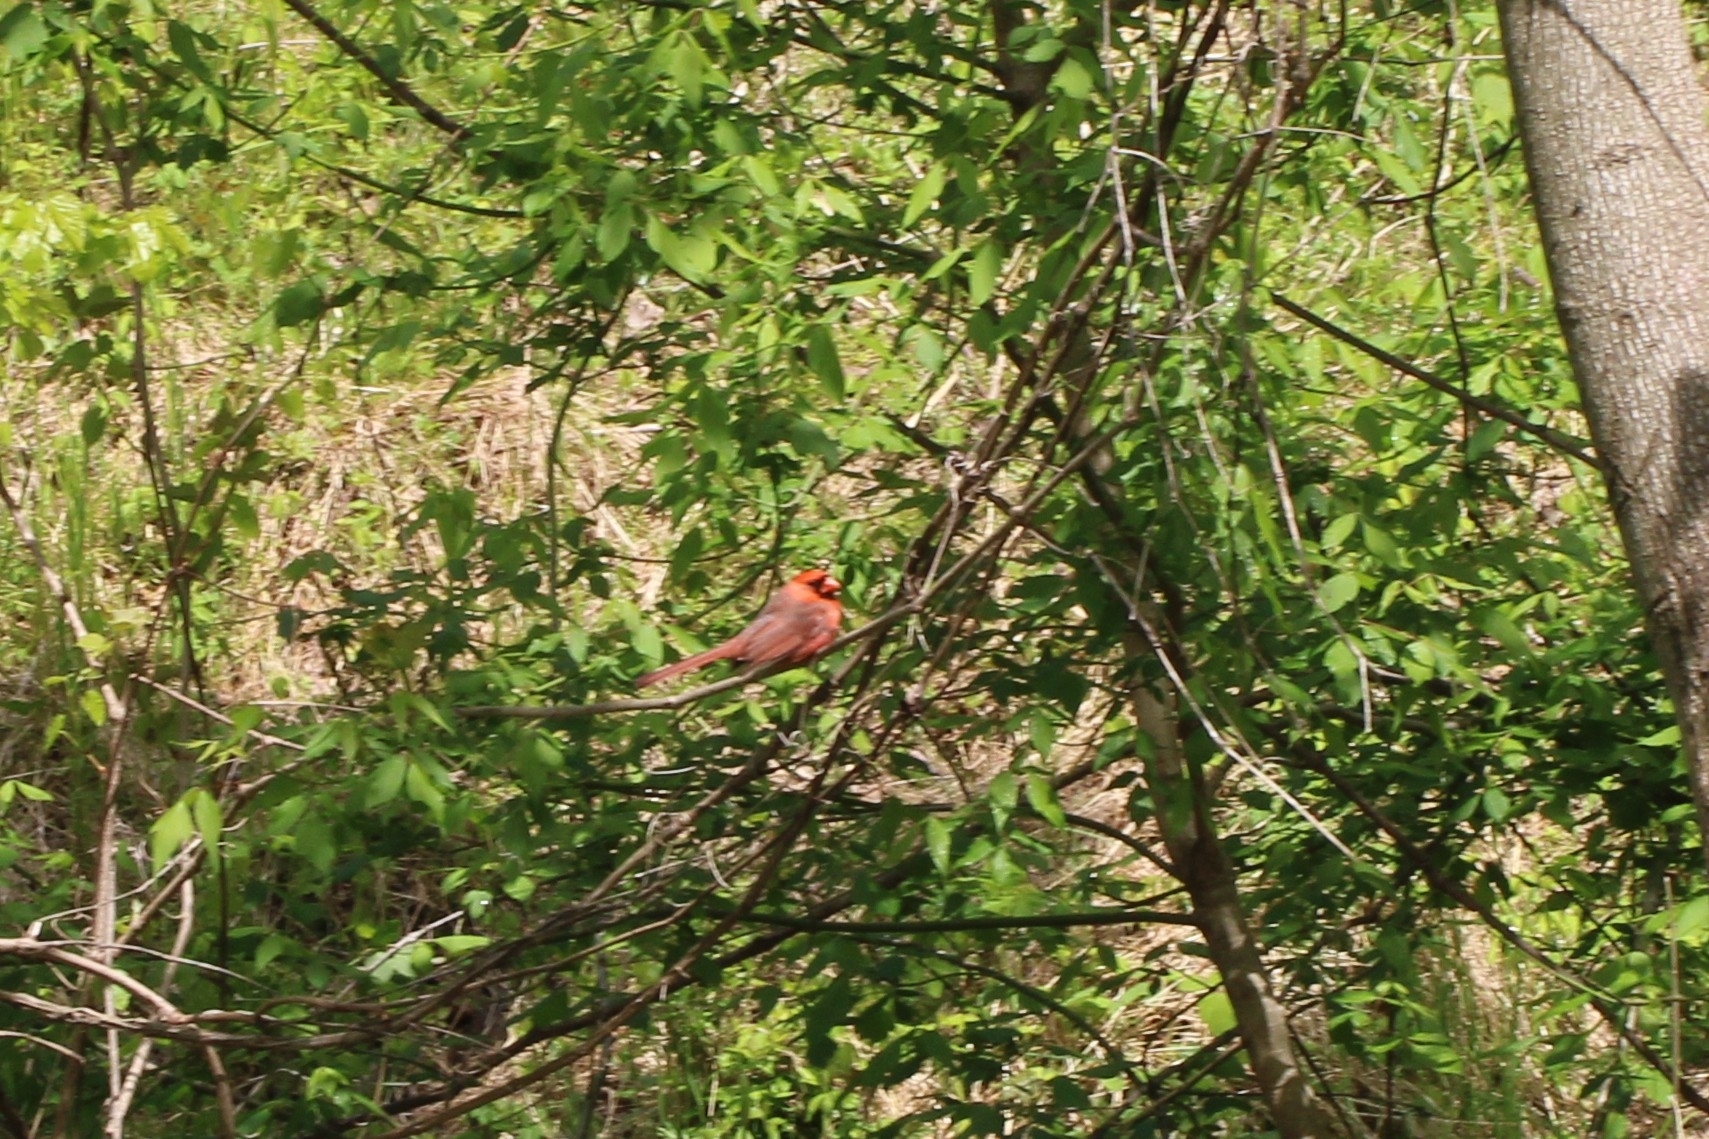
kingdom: Animalia
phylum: Chordata
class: Aves
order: Passeriformes
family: Cardinalidae
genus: Cardinalis
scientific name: Cardinalis cardinalis
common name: Northern cardinal
